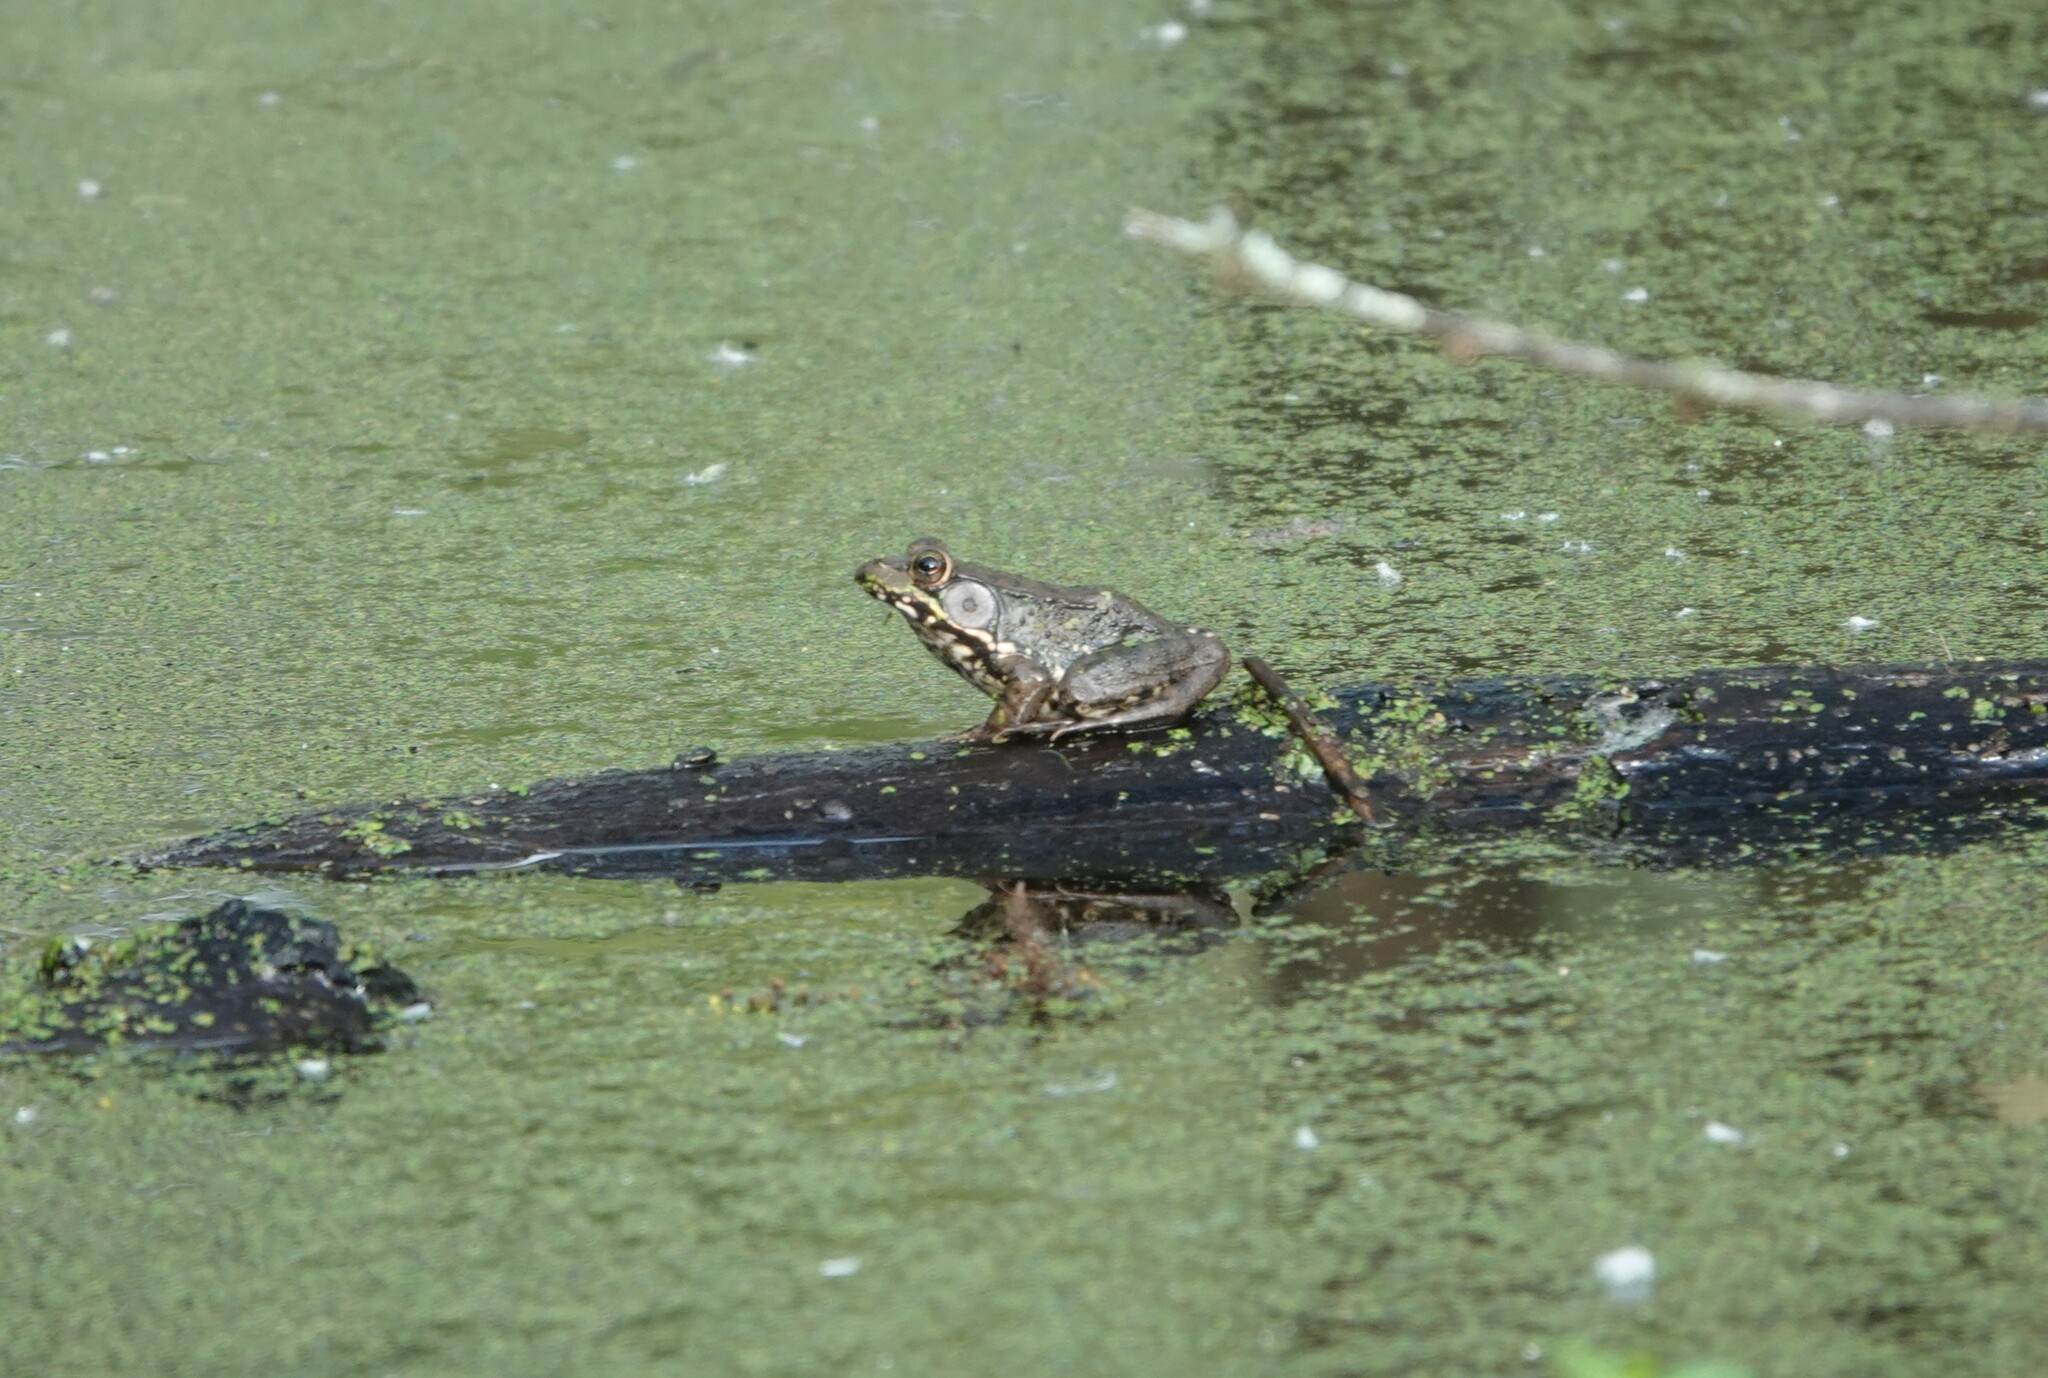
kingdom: Animalia
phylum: Chordata
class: Amphibia
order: Anura
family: Ranidae
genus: Lithobates
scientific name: Lithobates clamitans
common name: Green frog
